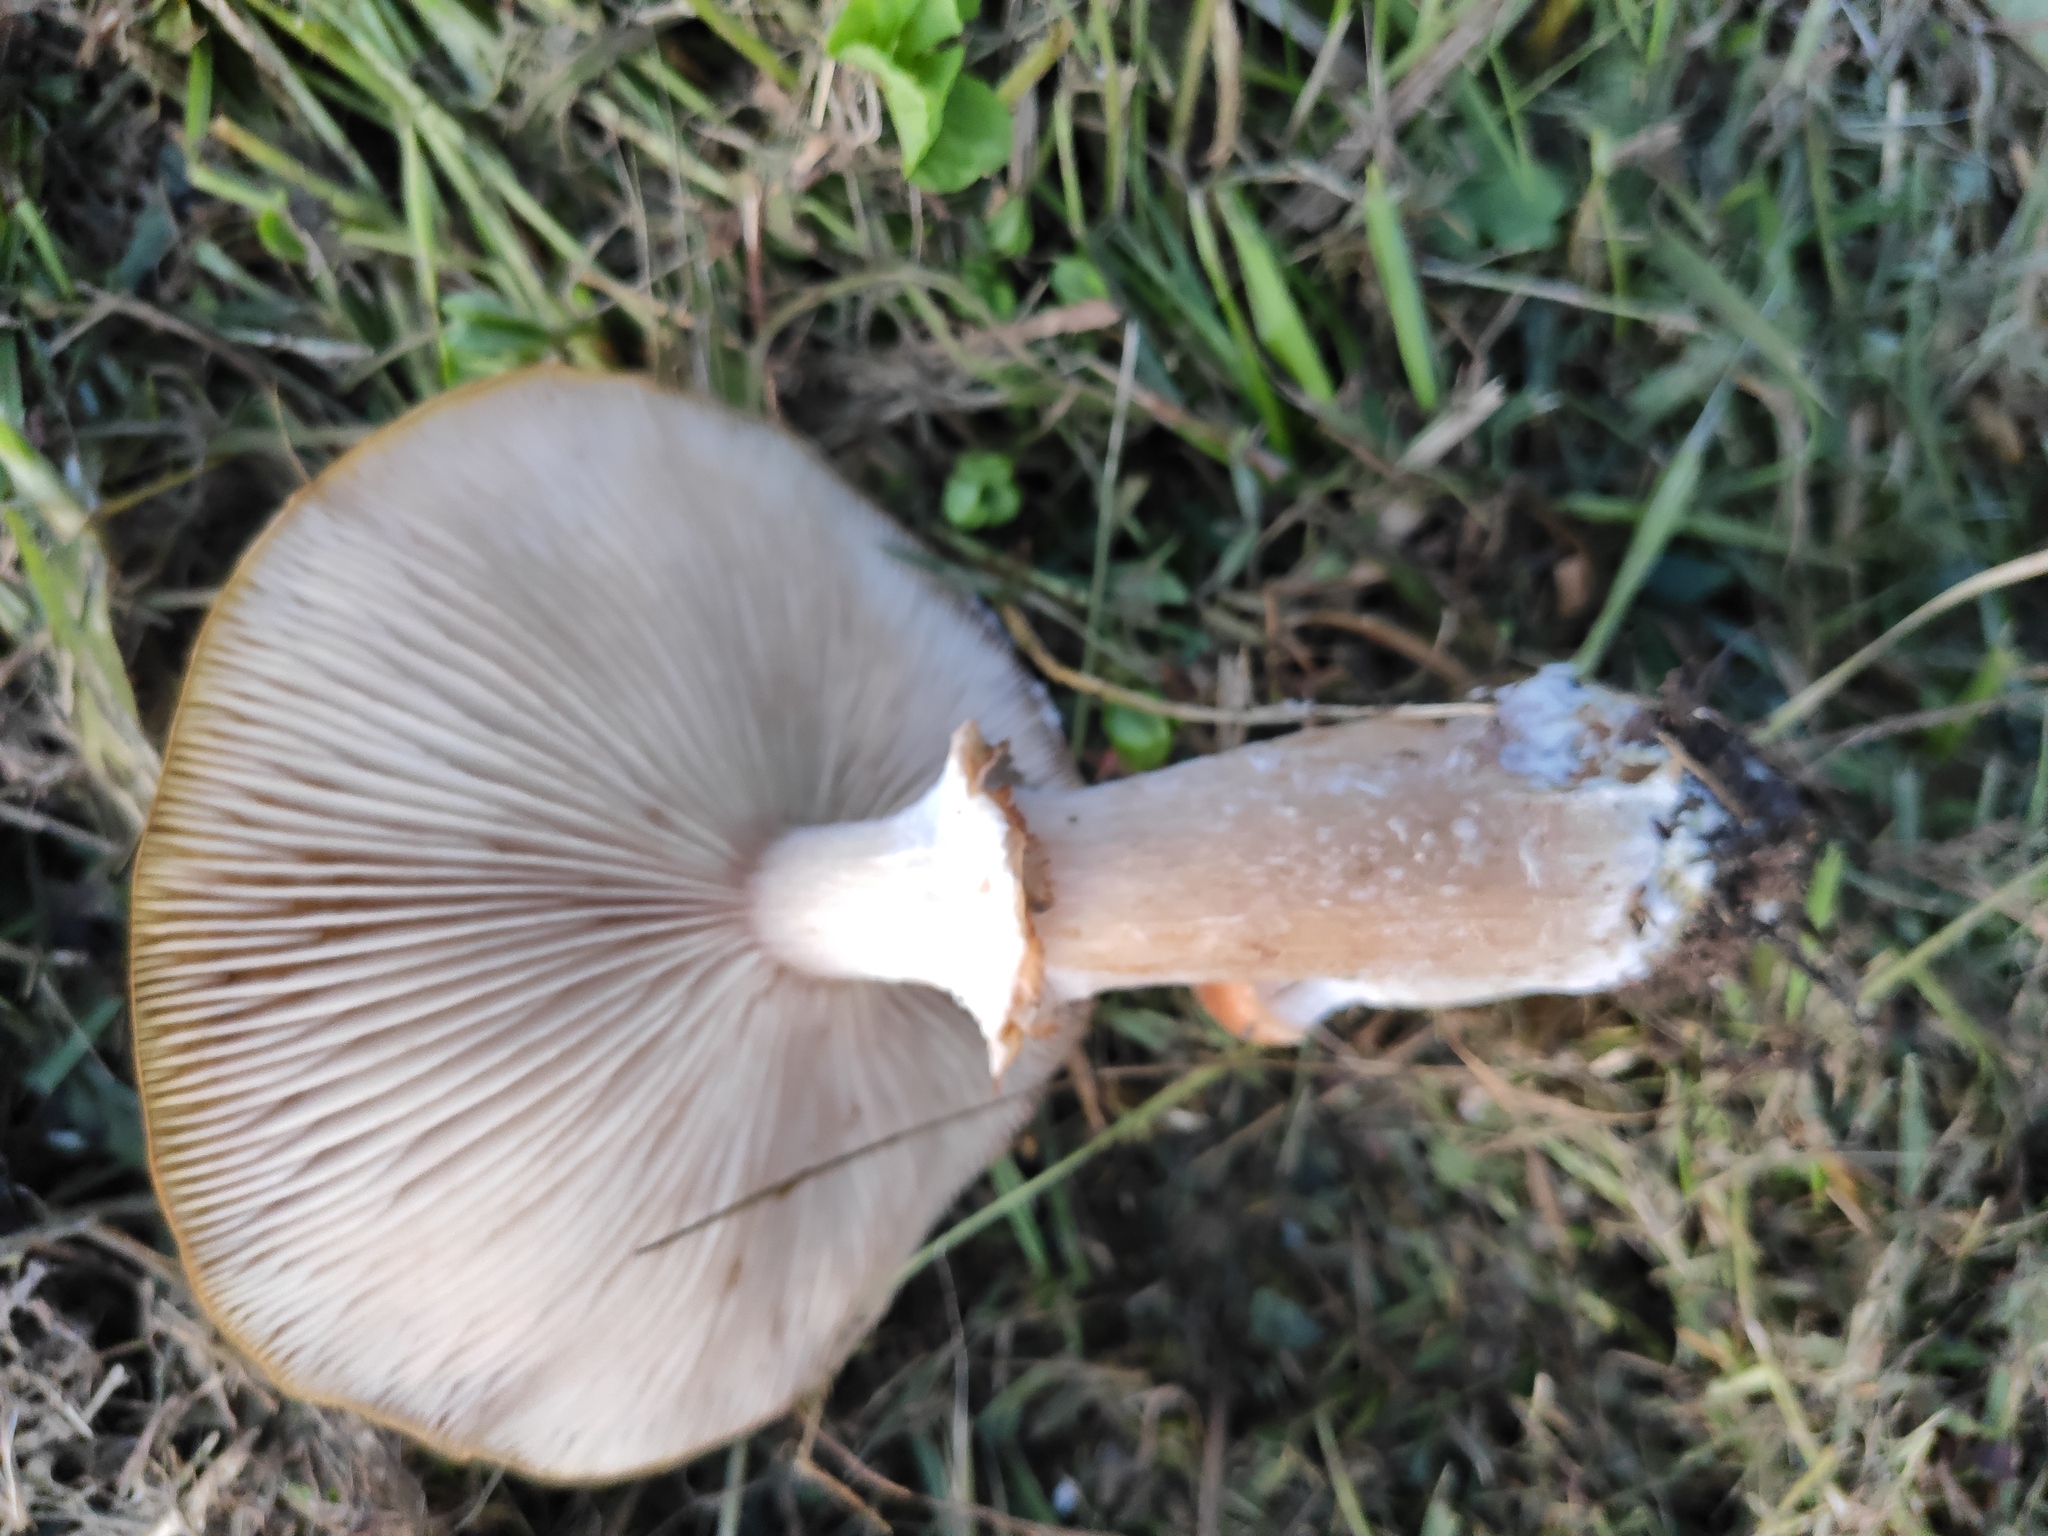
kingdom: Fungi
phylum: Basidiomycota
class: Agaricomycetes
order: Agaricales
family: Physalacriaceae
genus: Armillaria
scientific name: Armillaria mellea
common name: Honey fungus
